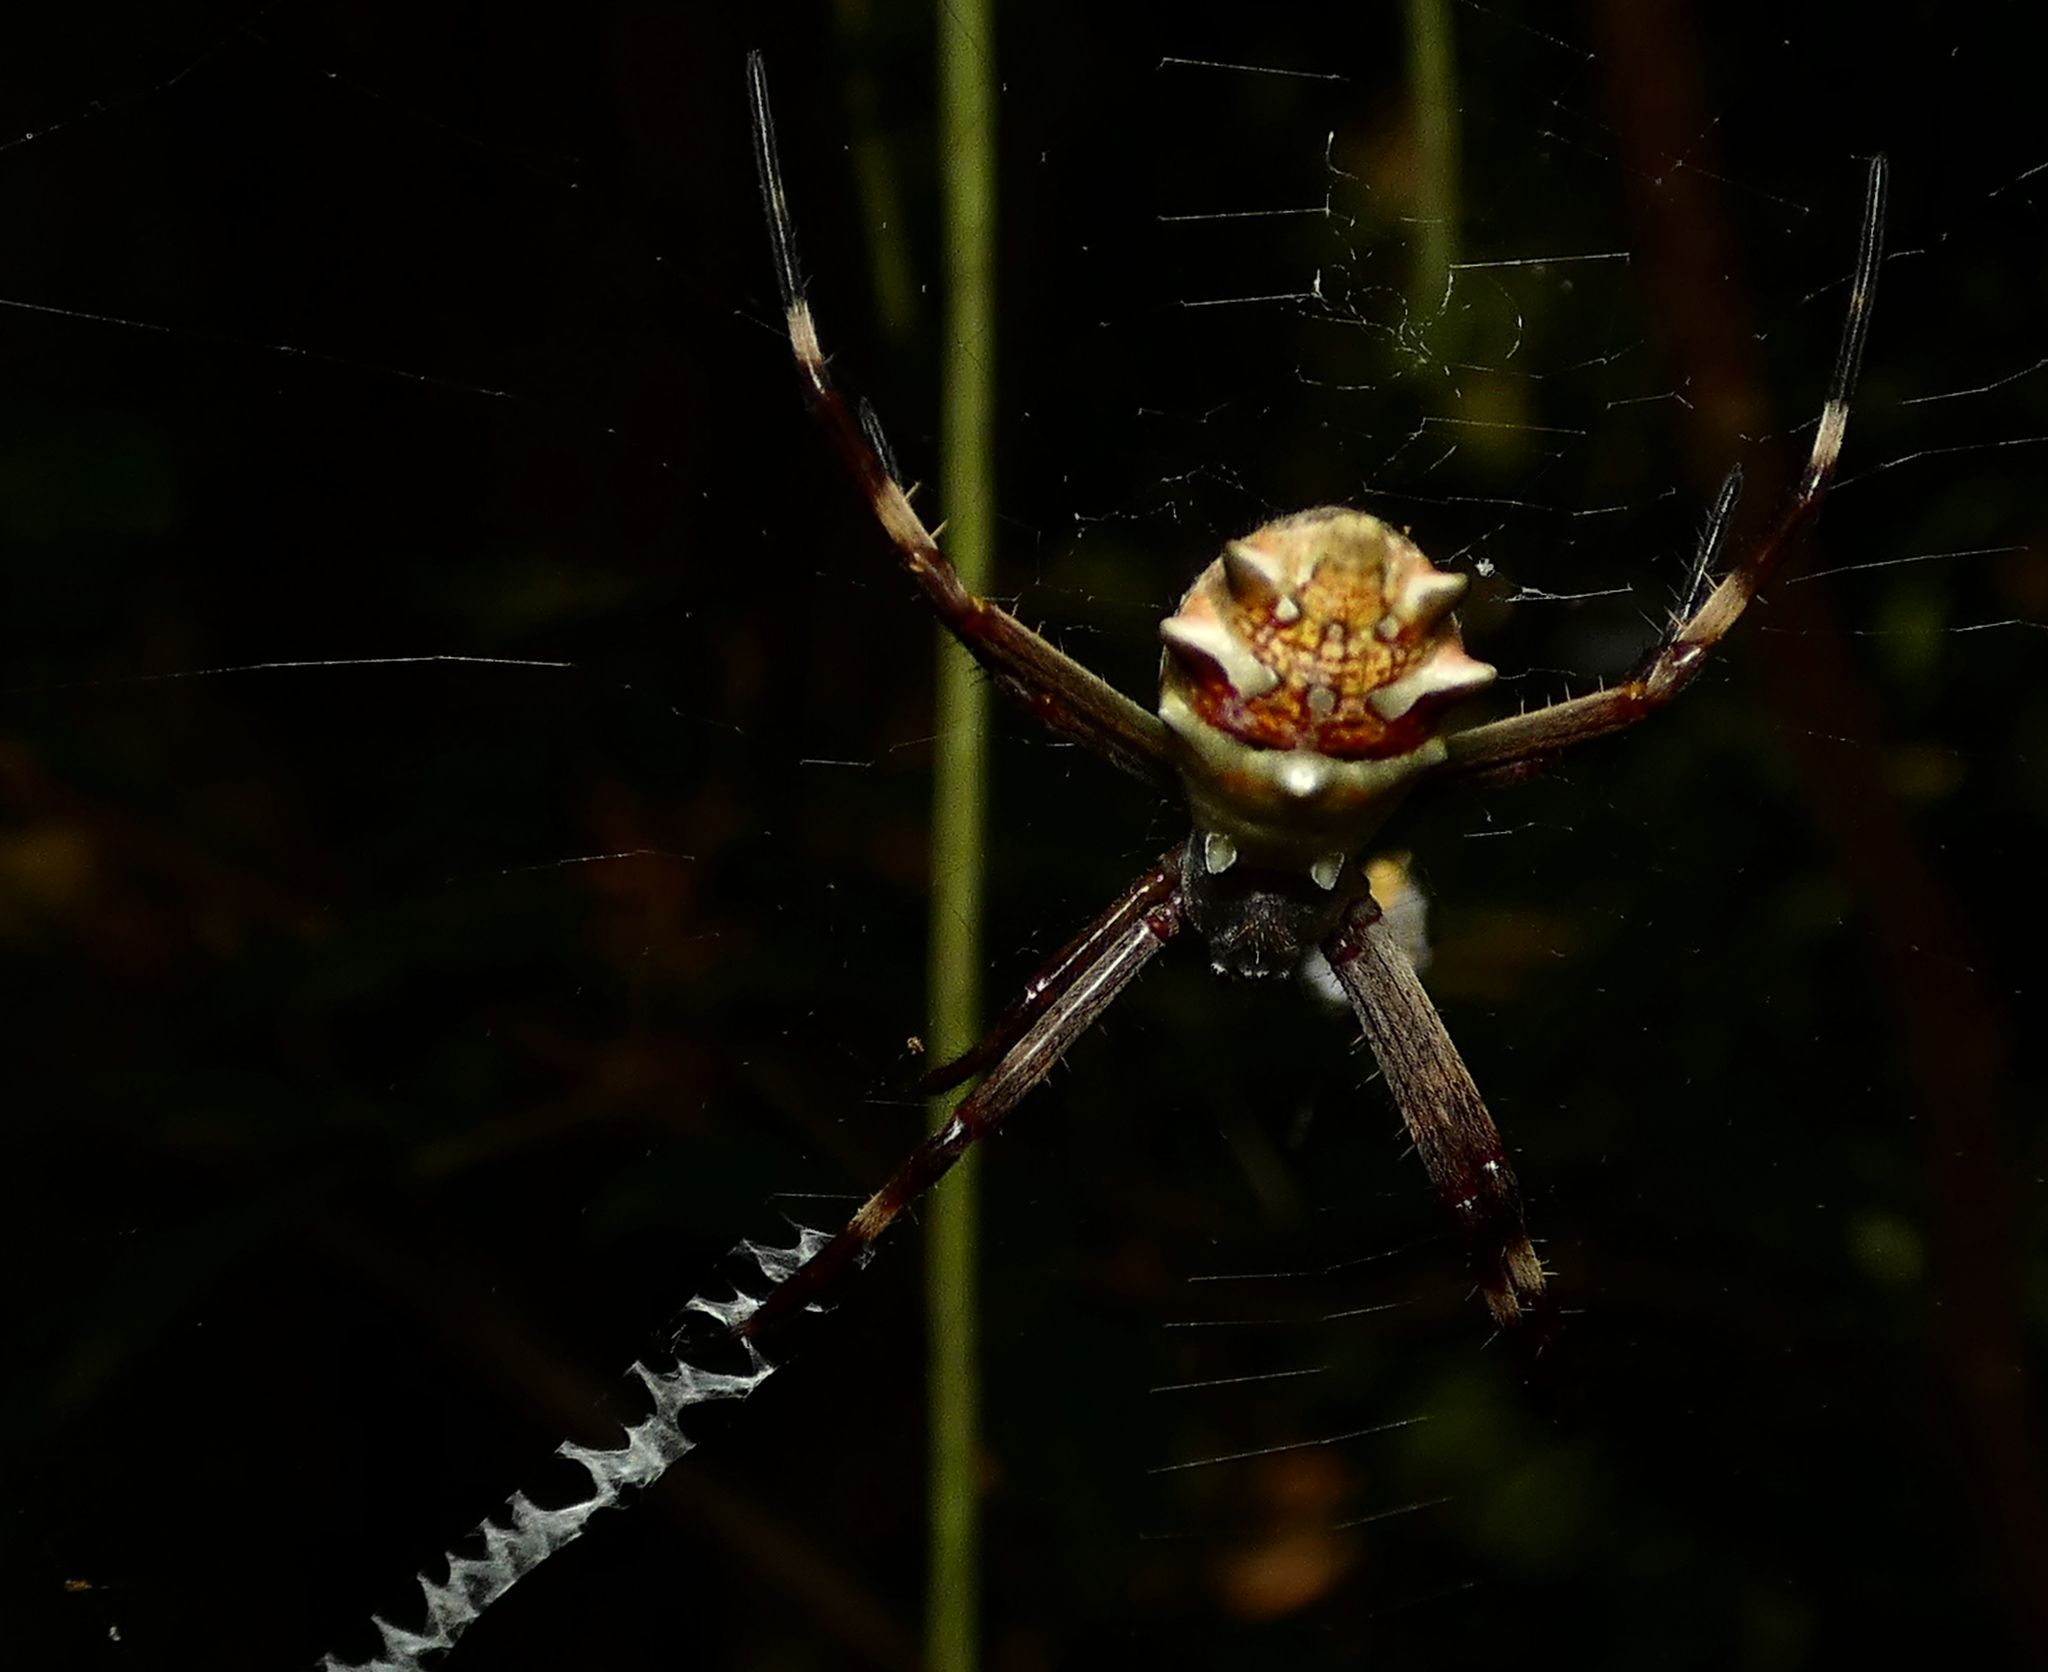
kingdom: Animalia
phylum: Arthropoda
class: Arachnida
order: Araneae
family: Araneidae
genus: Argiope
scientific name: Argiope argentata
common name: Orb weavers
